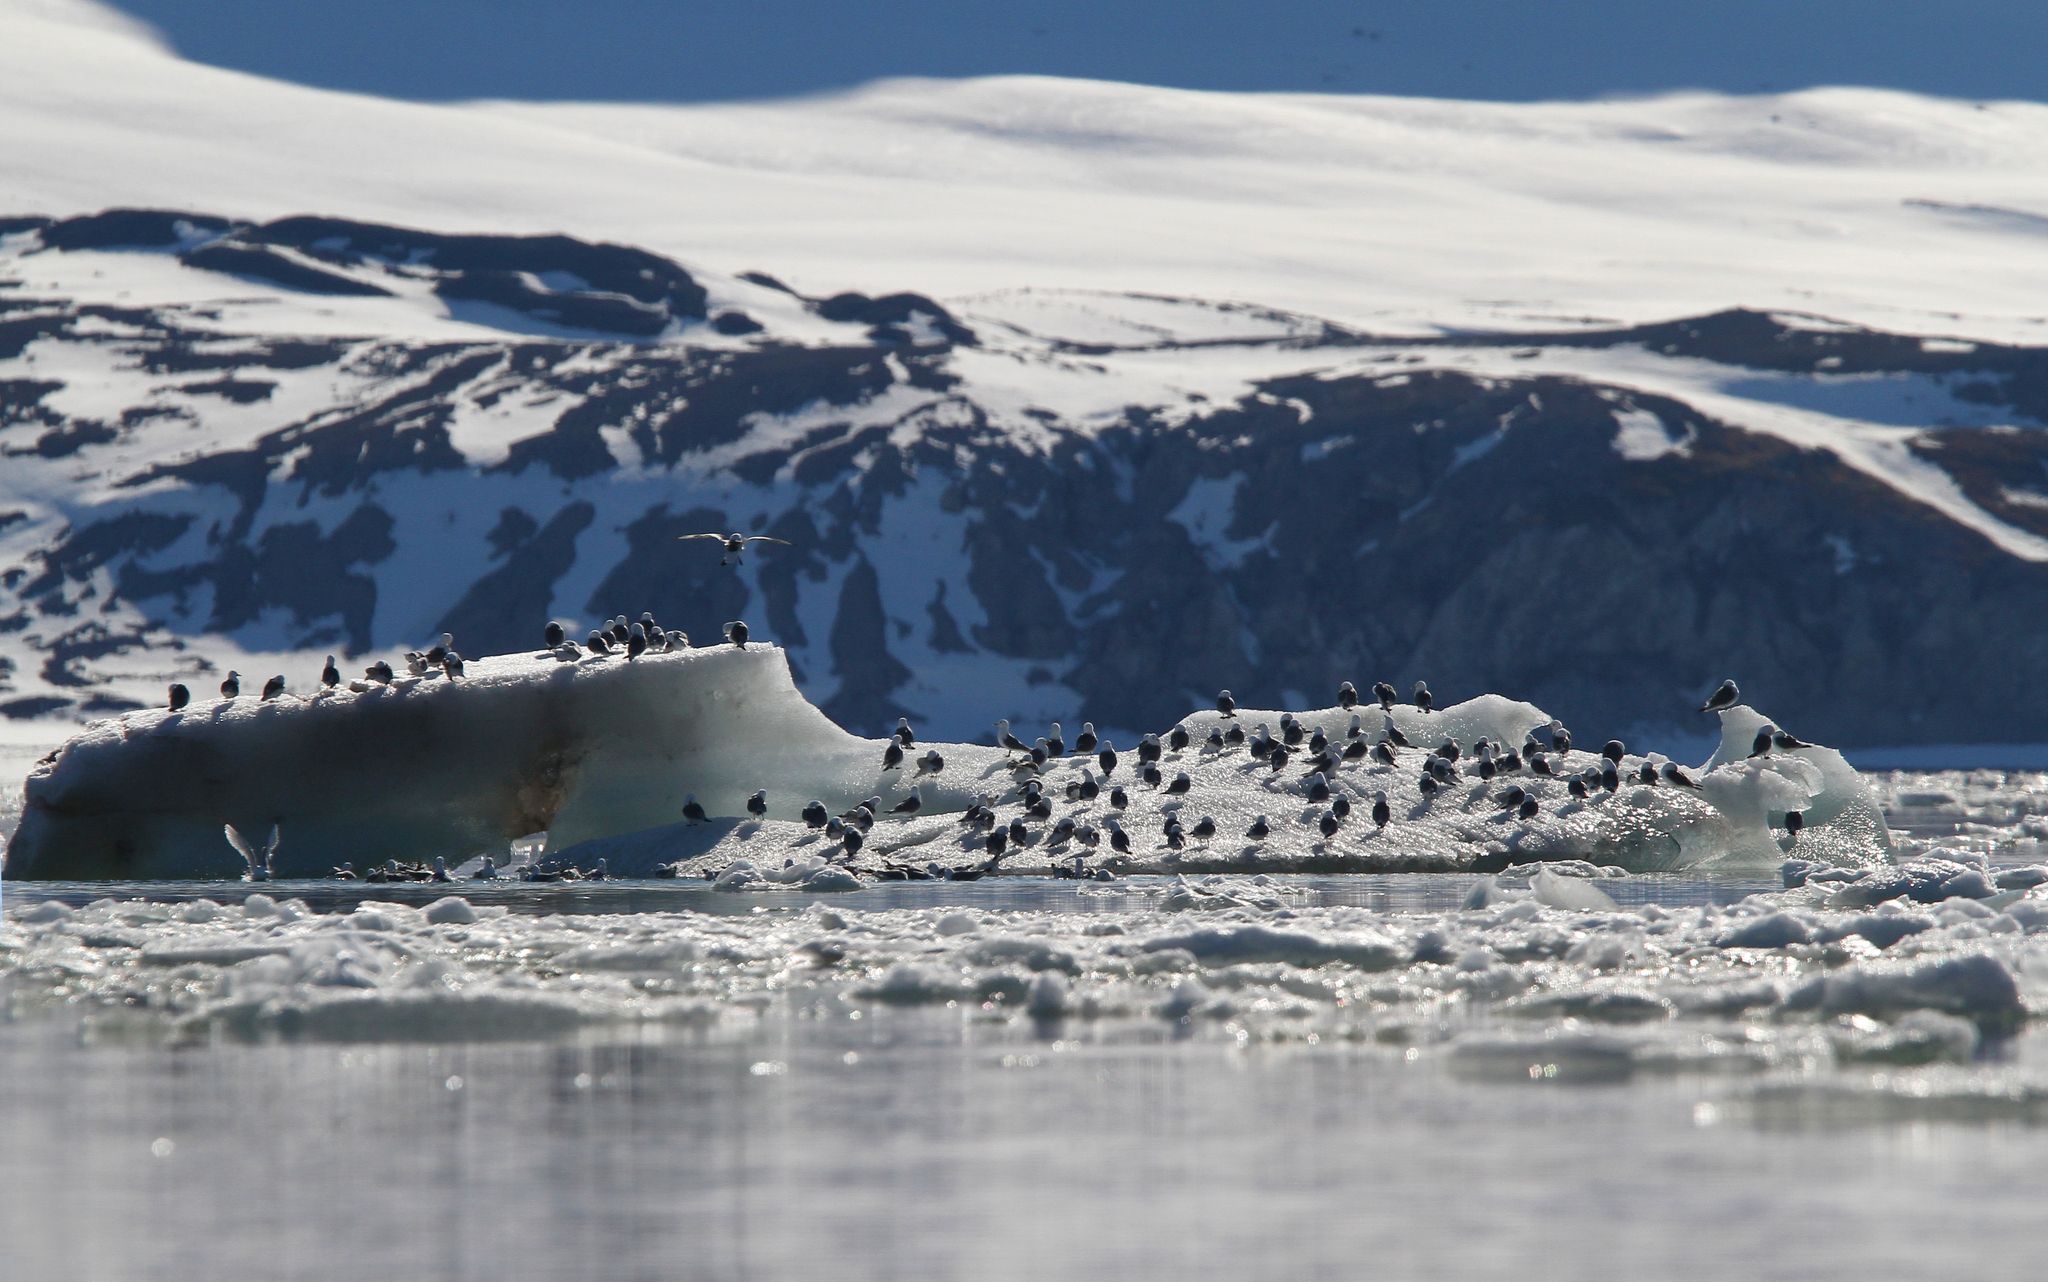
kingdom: Animalia
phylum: Chordata
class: Aves
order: Charadriiformes
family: Laridae
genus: Rissa
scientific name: Rissa tridactyla
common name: Black-legged kittiwake
